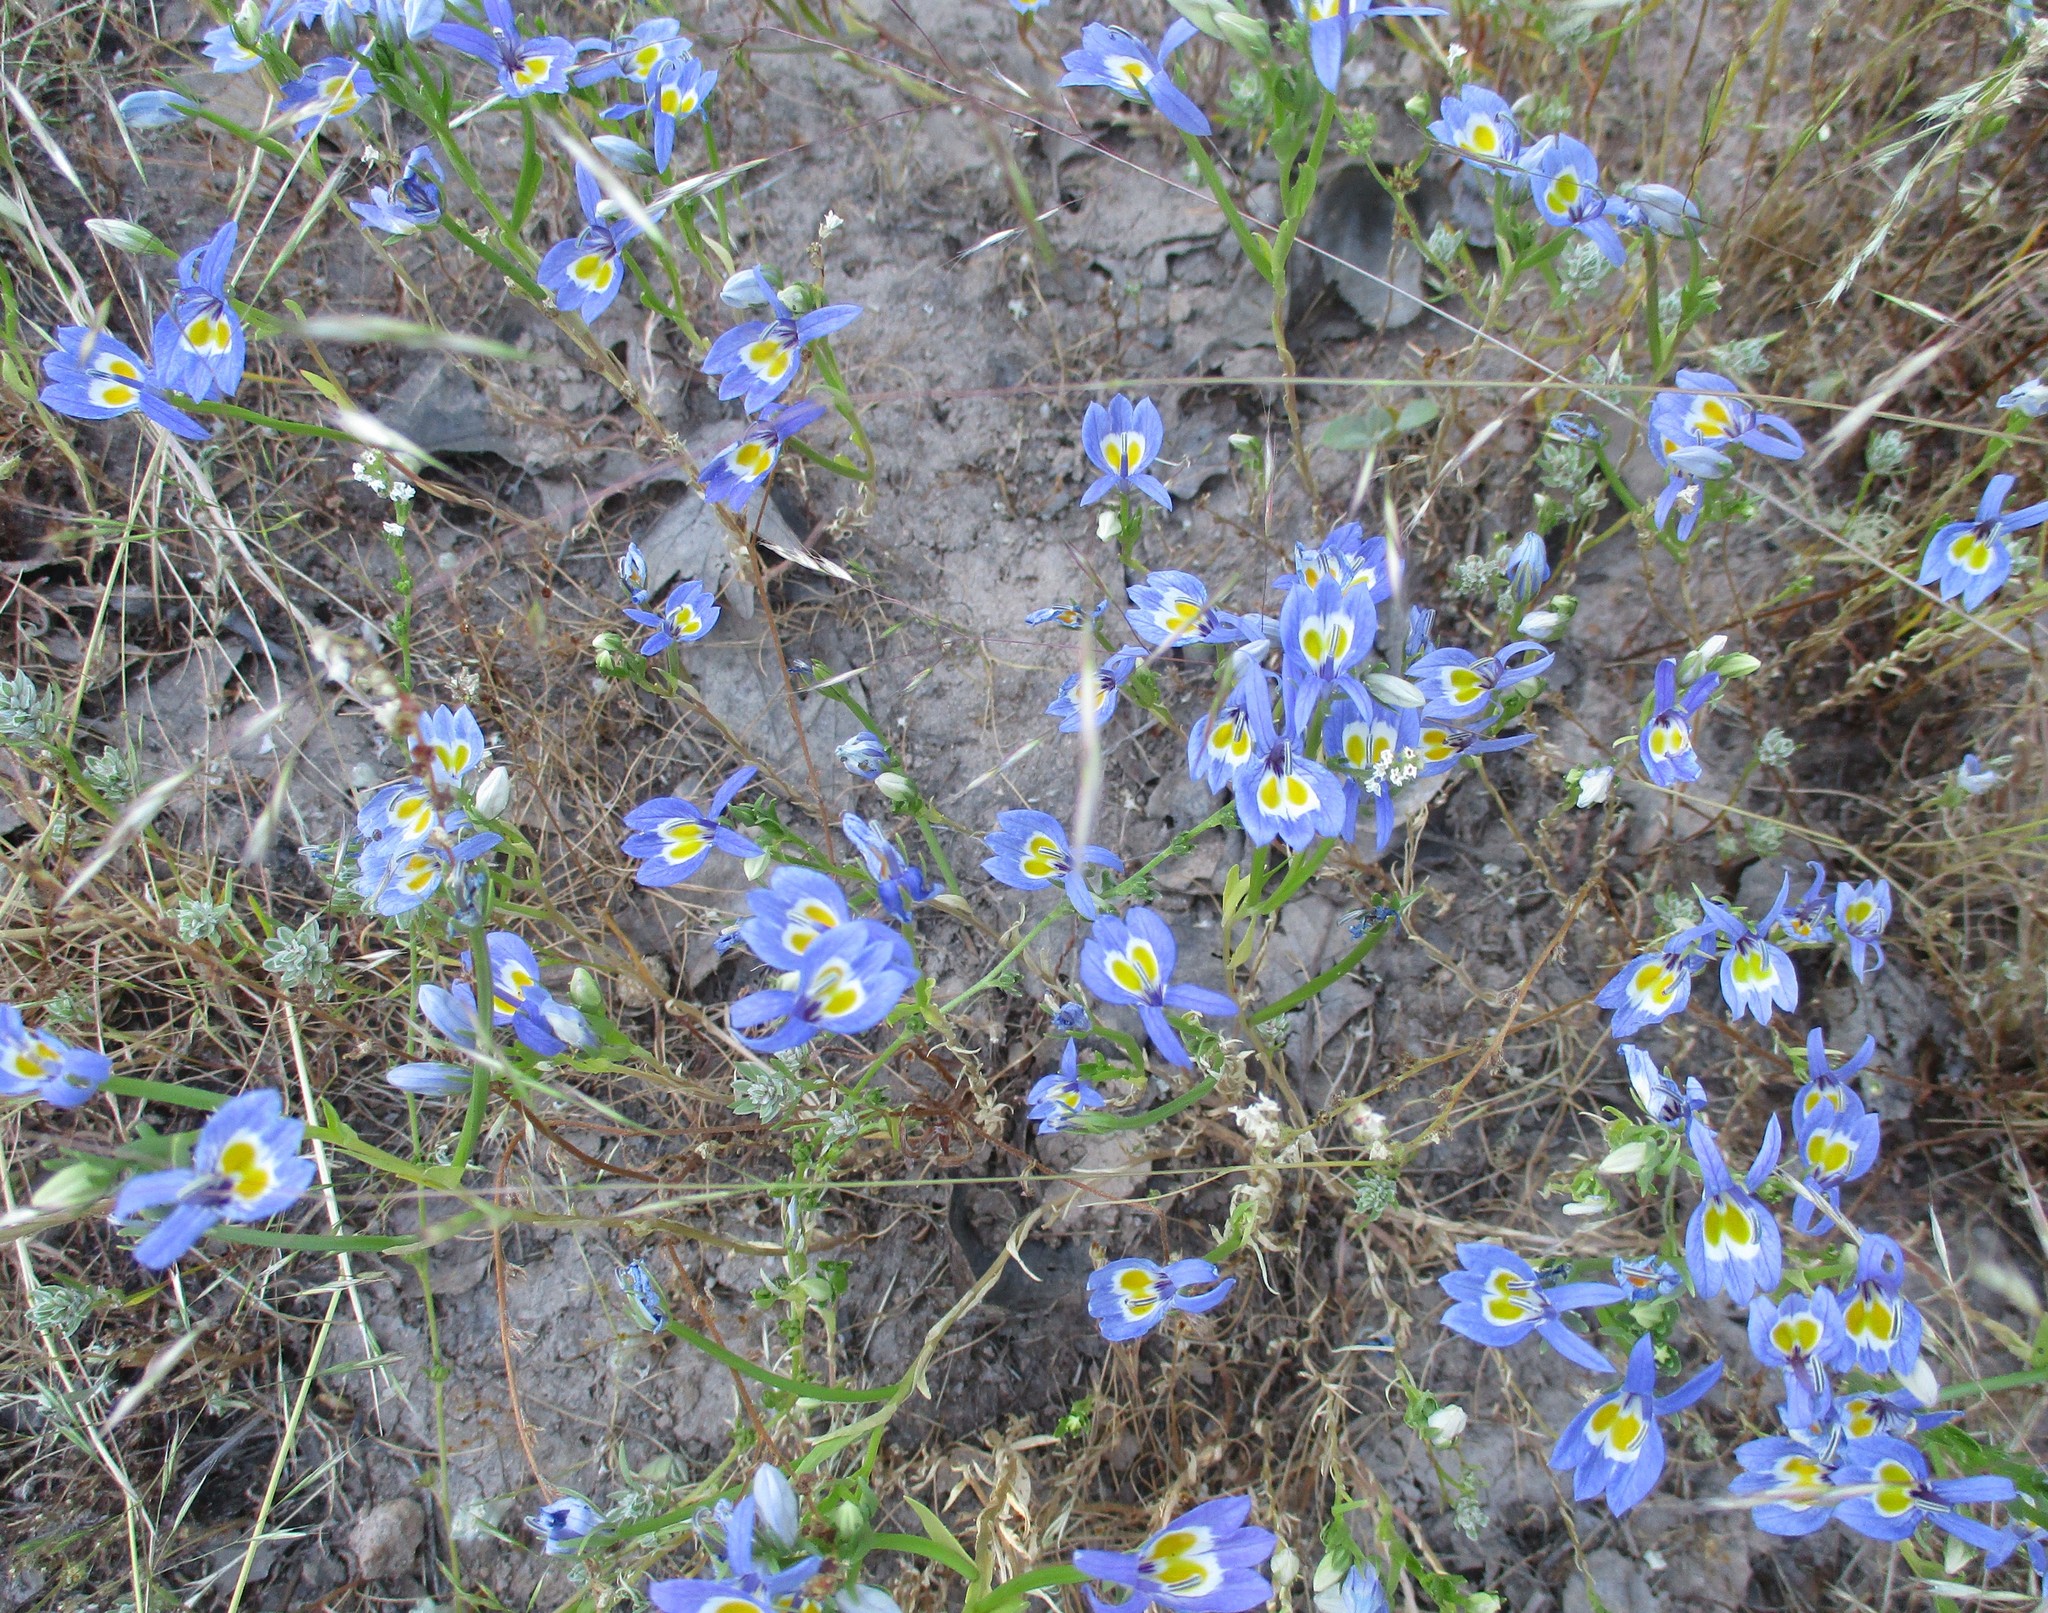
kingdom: Plantae
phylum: Tracheophyta
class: Magnoliopsida
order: Asterales
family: Campanulaceae
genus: Downingia
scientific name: Downingia bacigalupii
